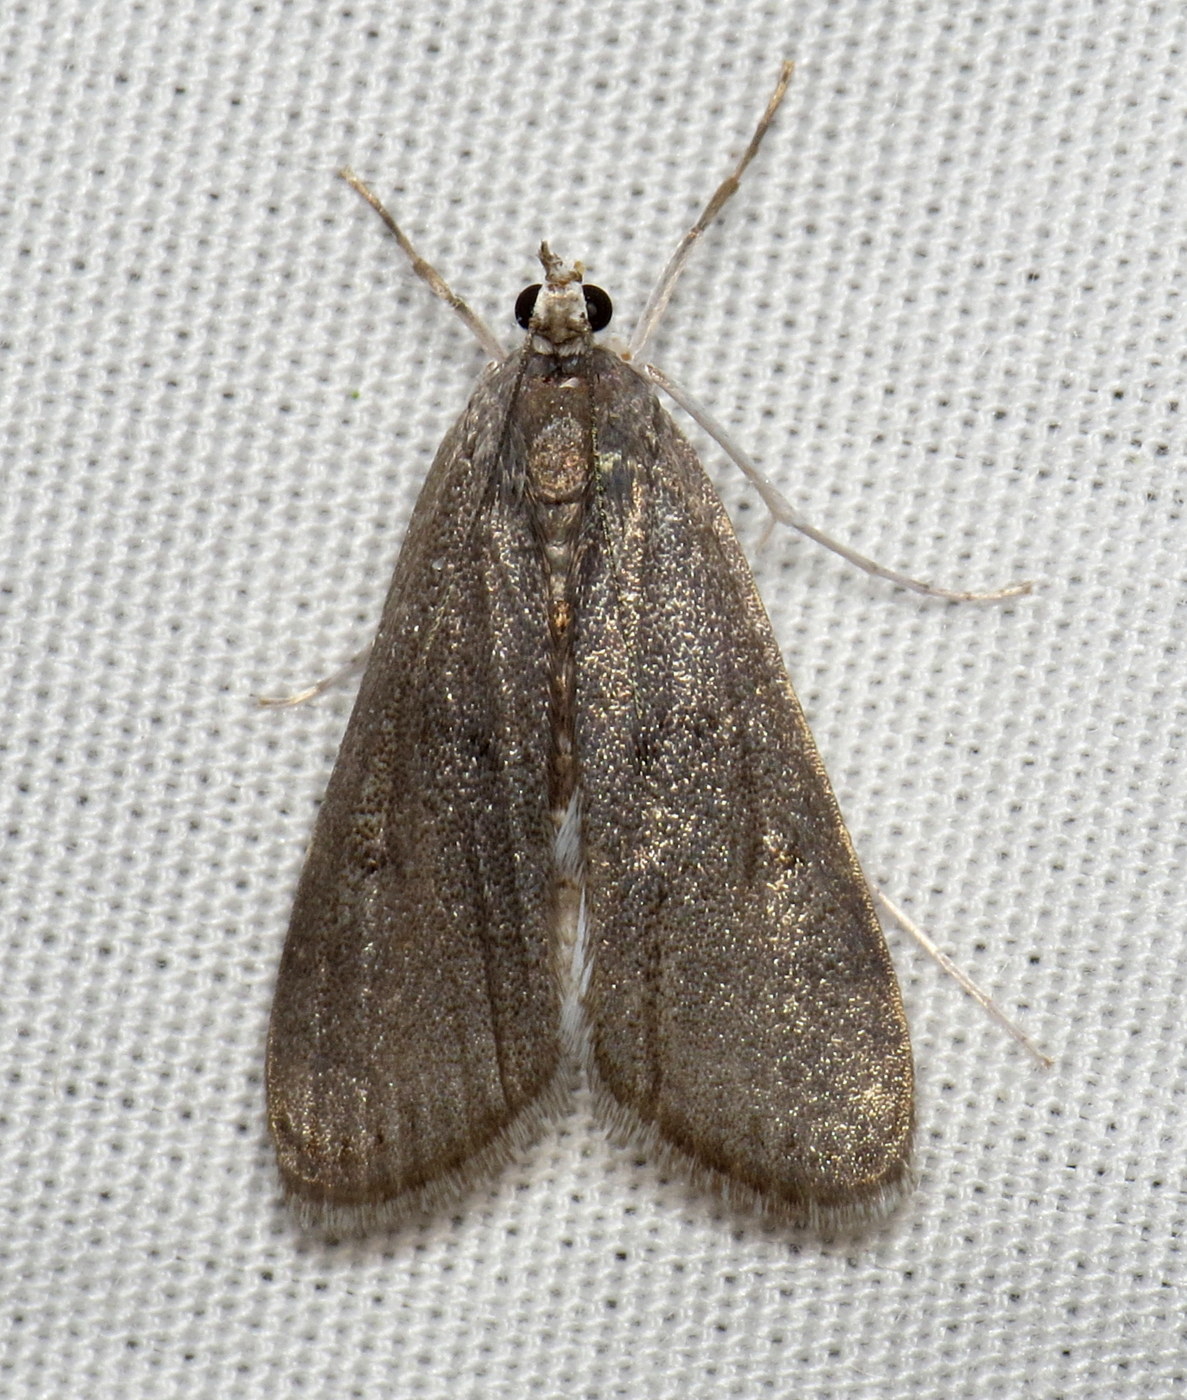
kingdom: Animalia
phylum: Arthropoda
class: Insecta
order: Lepidoptera
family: Crambidae
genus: Elophila
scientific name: Elophila gyralis
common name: Waterlily borer moth
